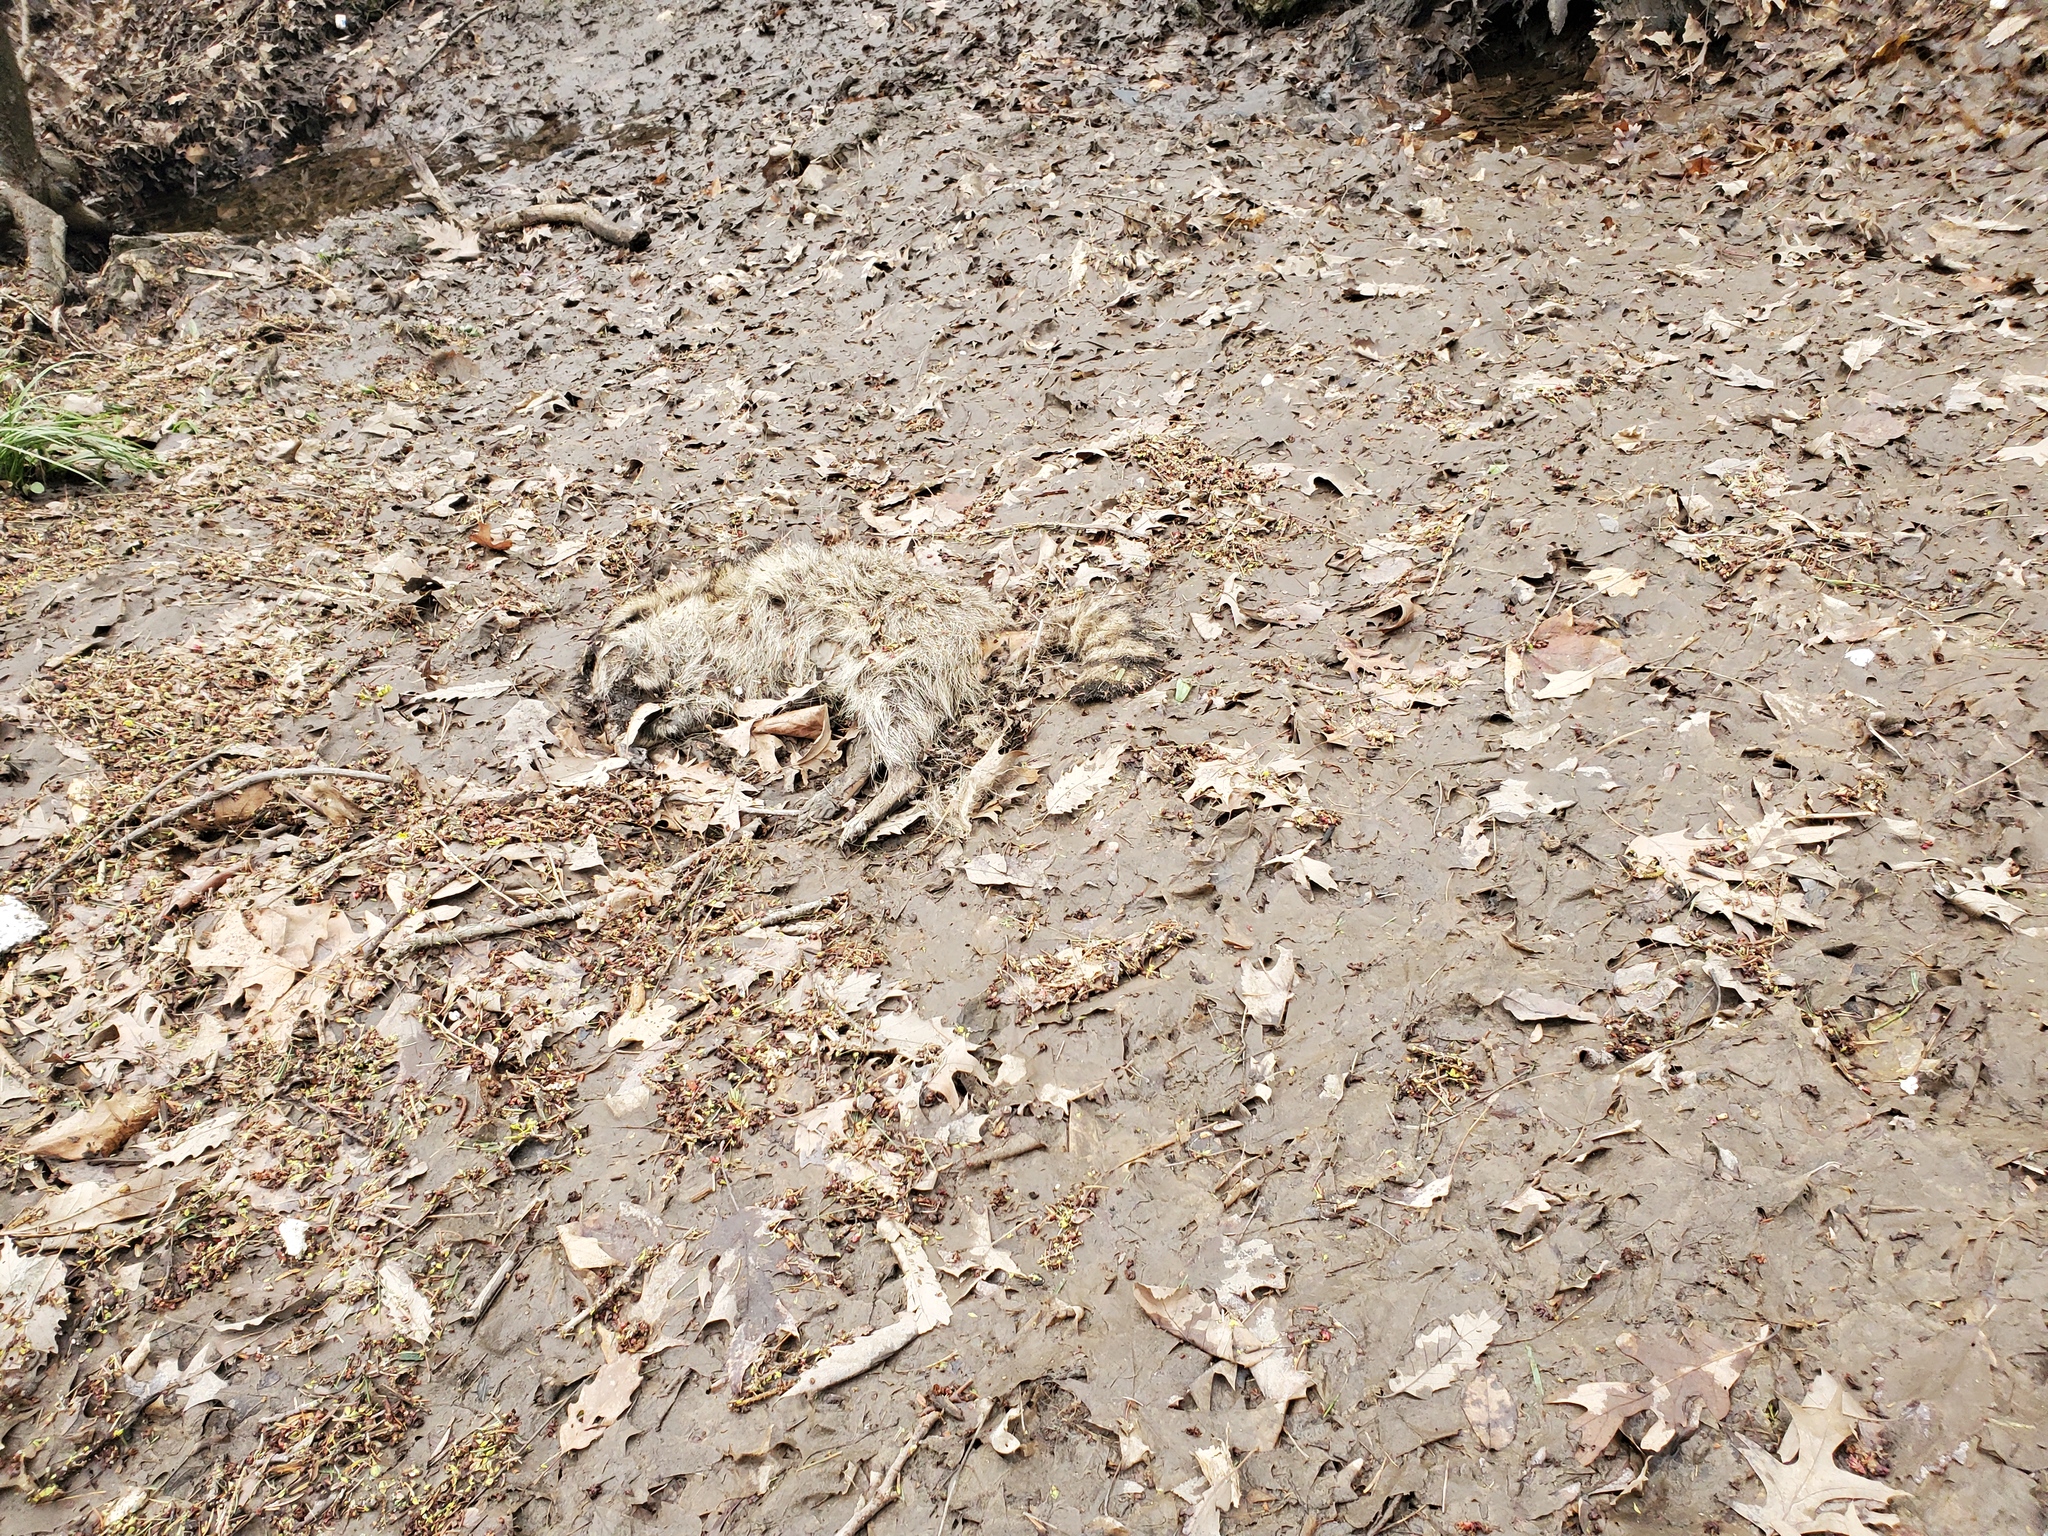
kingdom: Animalia
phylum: Chordata
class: Mammalia
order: Carnivora
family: Procyonidae
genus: Procyon
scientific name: Procyon lotor
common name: Raccoon
